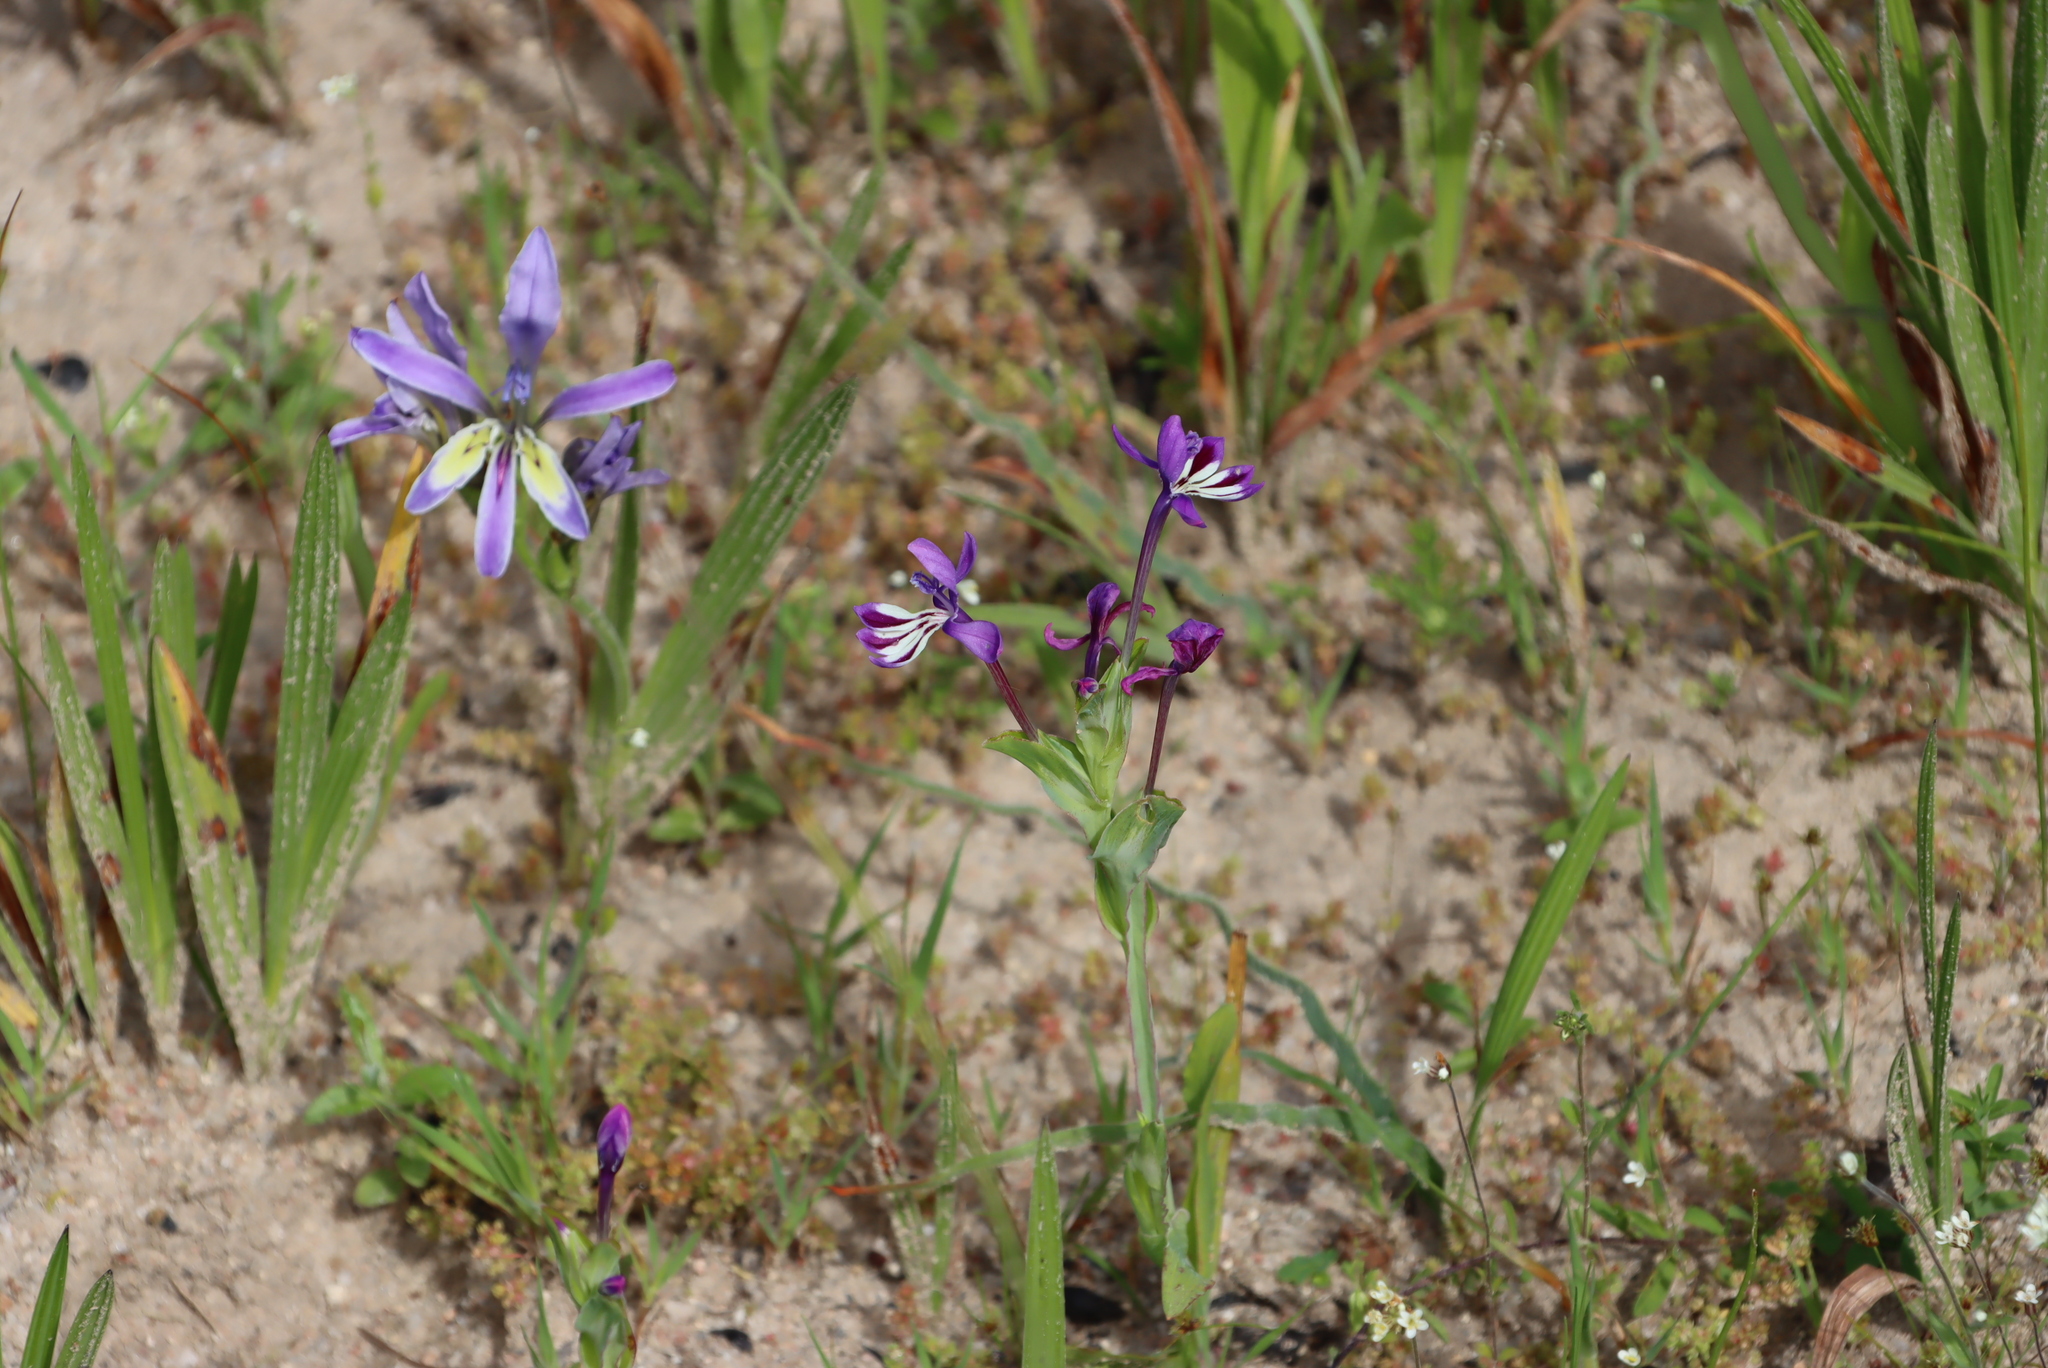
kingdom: Plantae
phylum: Tracheophyta
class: Liliopsida
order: Asparagales
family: Iridaceae
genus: Lapeirousia
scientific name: Lapeirousia jacquinii
